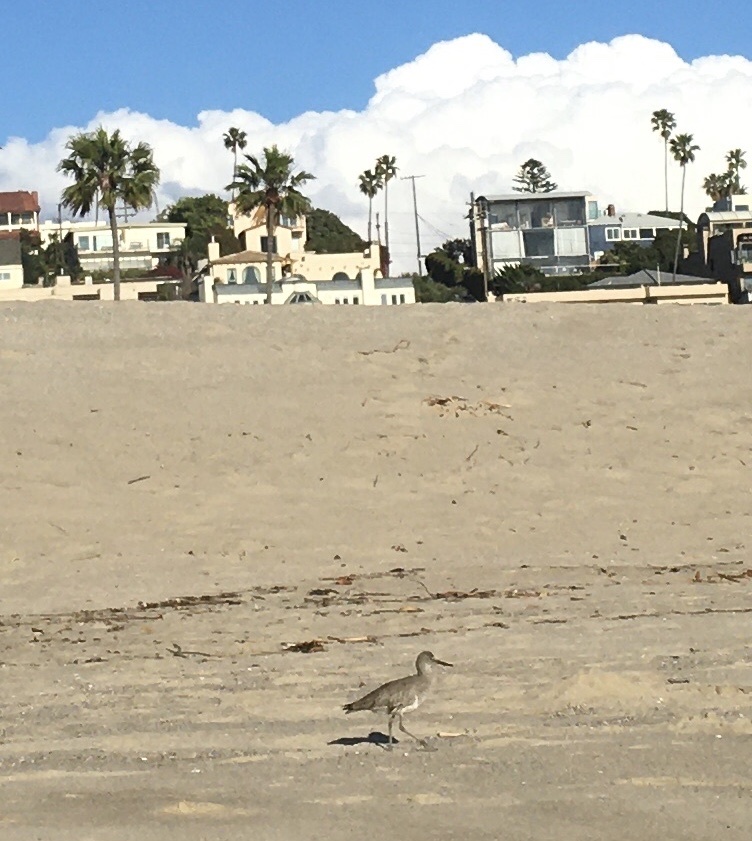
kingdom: Animalia
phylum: Chordata
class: Aves
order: Charadriiformes
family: Scolopacidae
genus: Tringa
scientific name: Tringa semipalmata
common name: Willet
